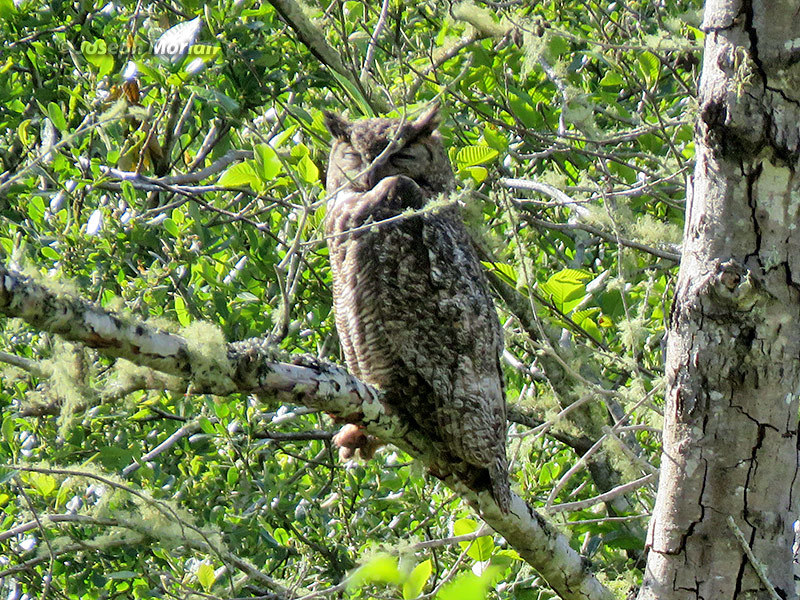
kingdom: Animalia
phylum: Chordata
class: Aves
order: Strigiformes
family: Strigidae
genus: Bubo
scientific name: Bubo virginianus
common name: Great horned owl
